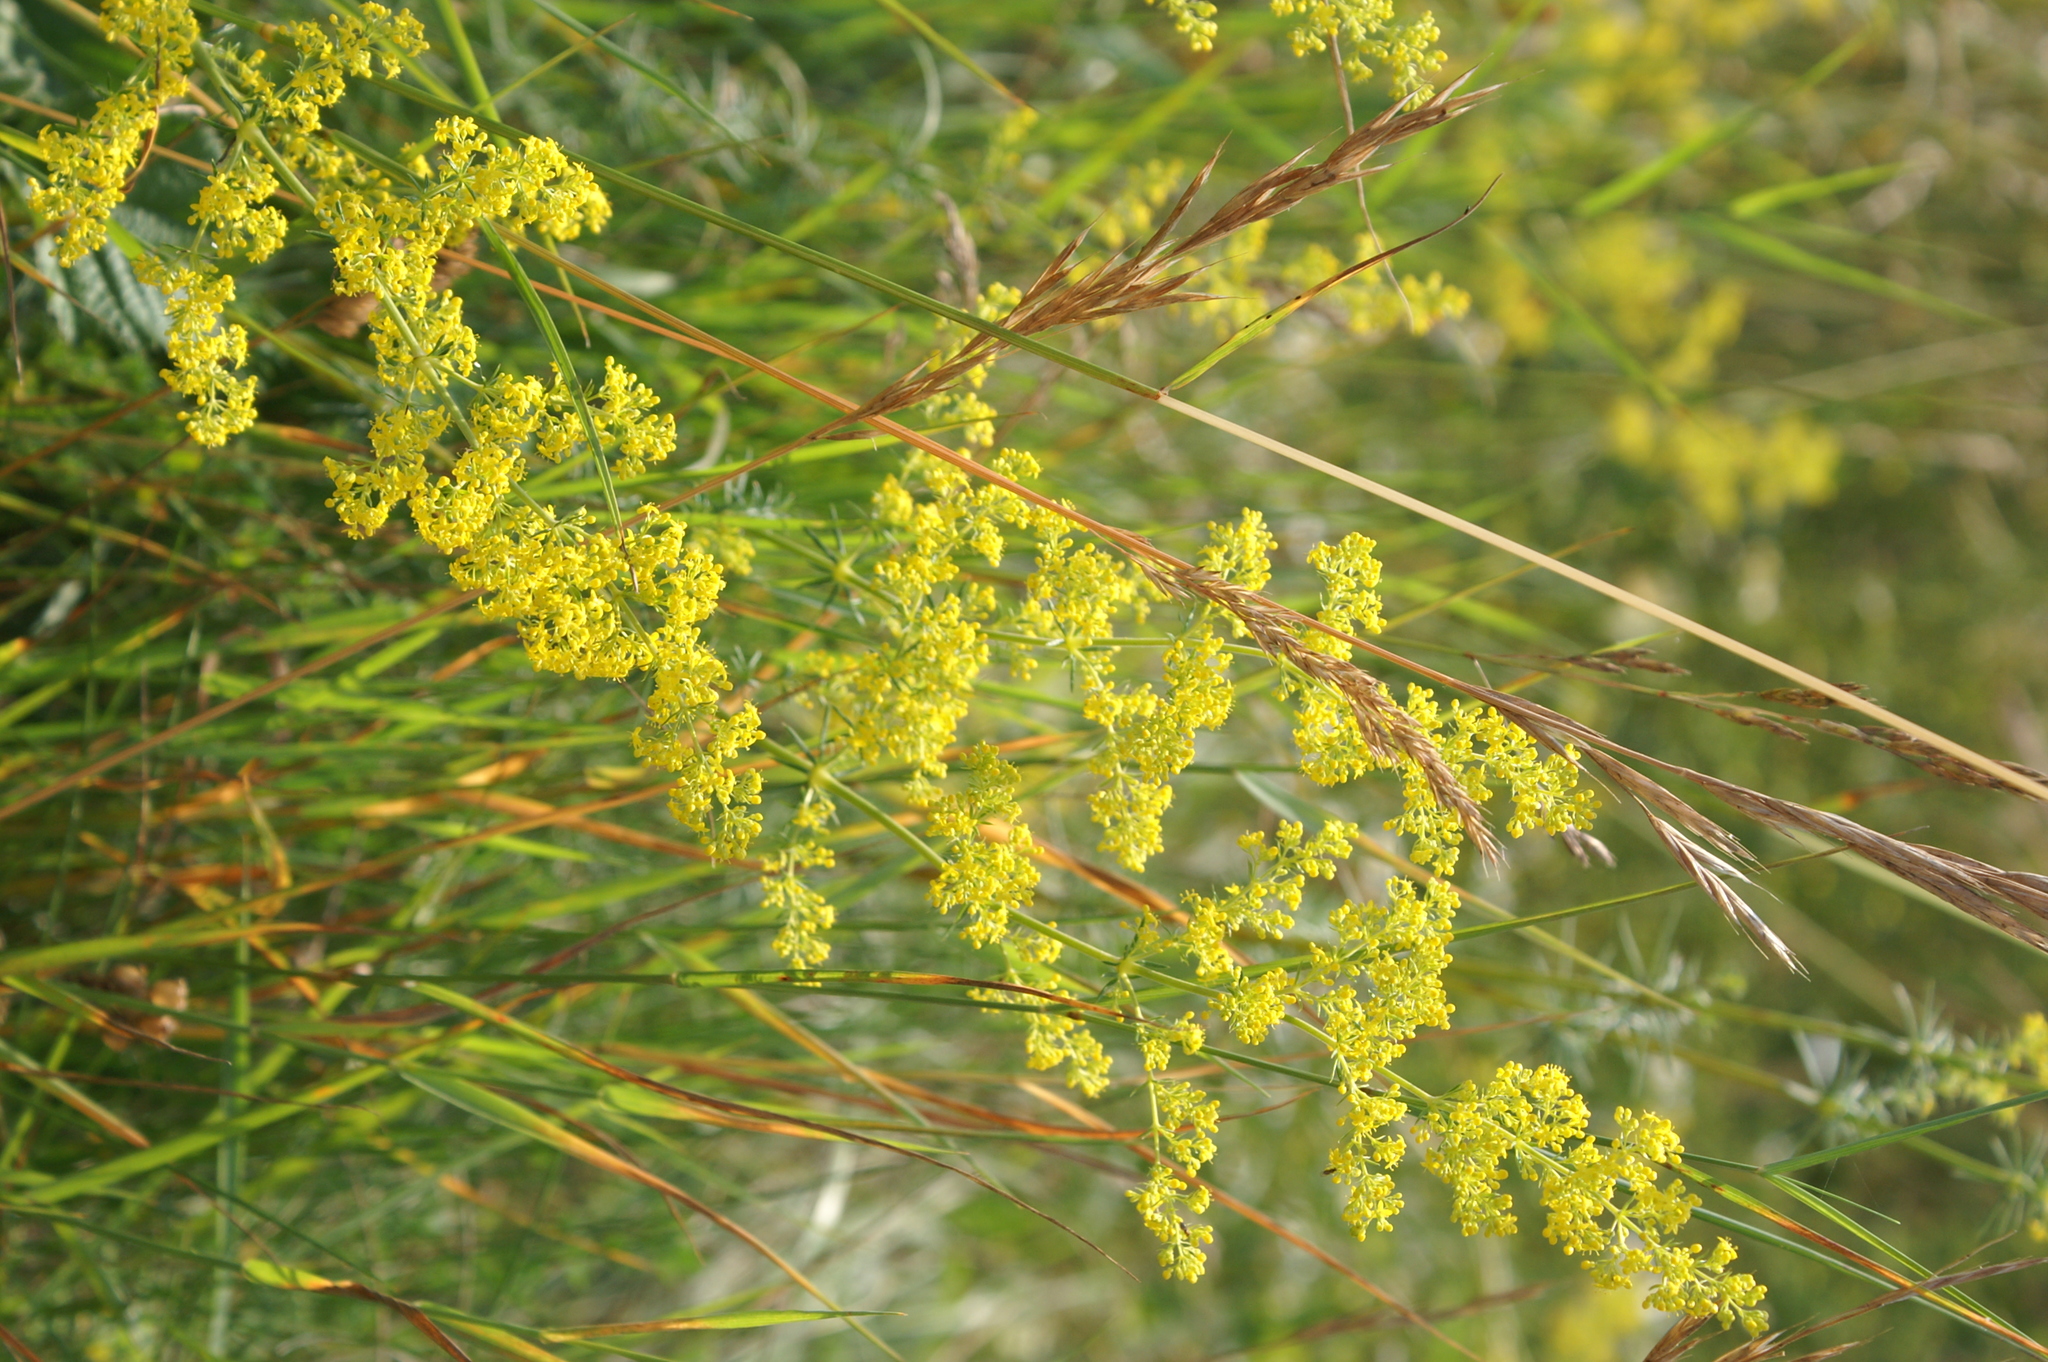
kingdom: Plantae
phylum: Tracheophyta
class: Magnoliopsida
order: Gentianales
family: Rubiaceae
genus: Galium
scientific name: Galium verum
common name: Lady's bedstraw
